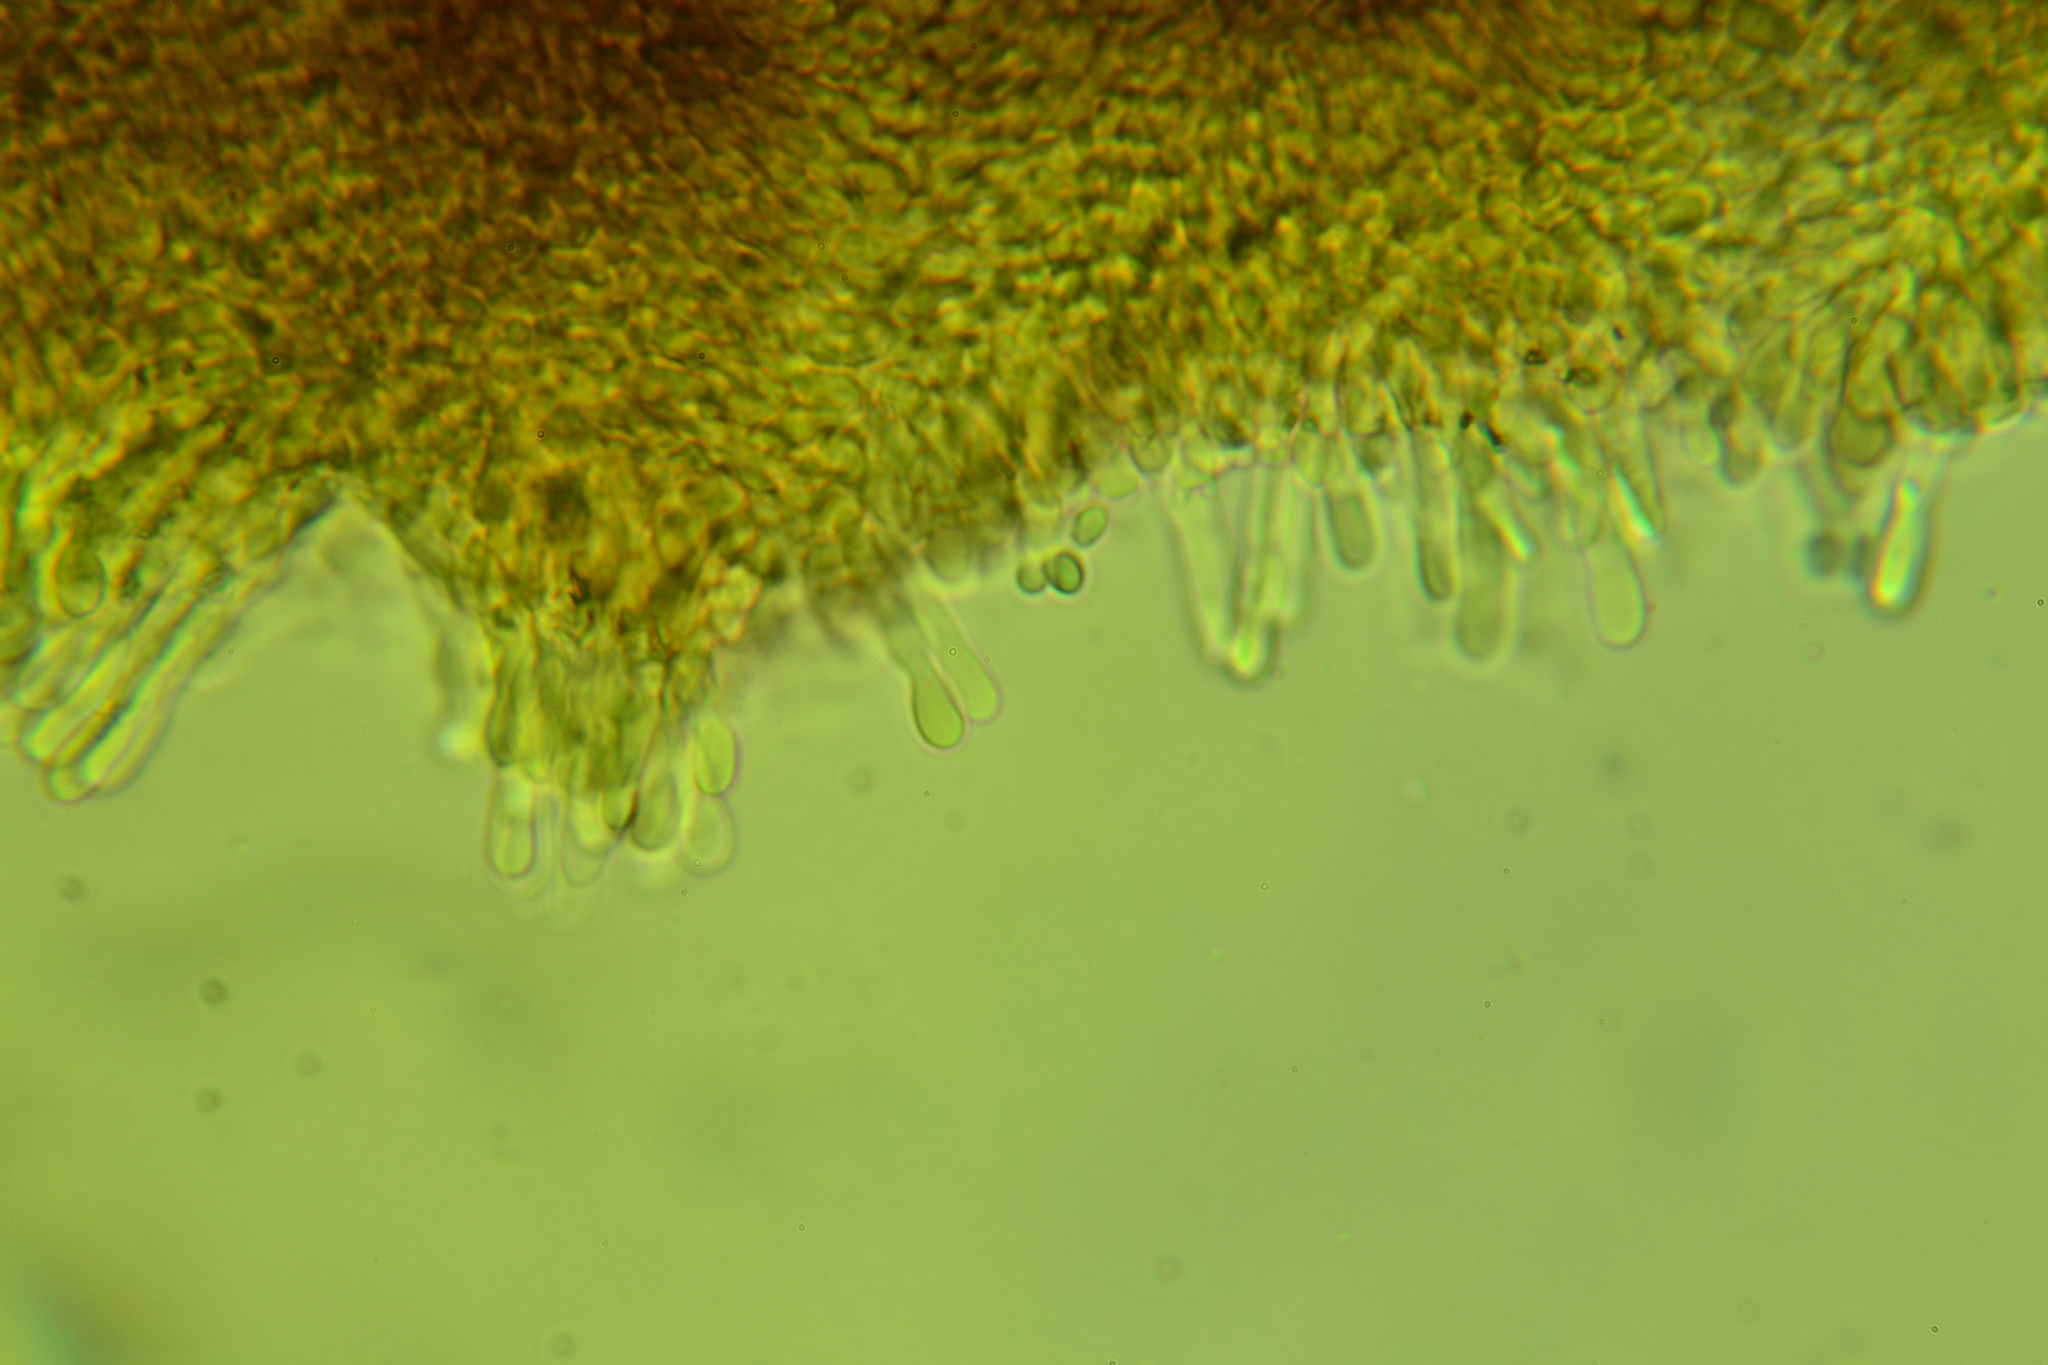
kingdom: Fungi
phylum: Basidiomycota
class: Agaricomycetes
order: Agaricales
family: Mycenaceae
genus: Resinomycena
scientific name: Resinomycena rhododendri
